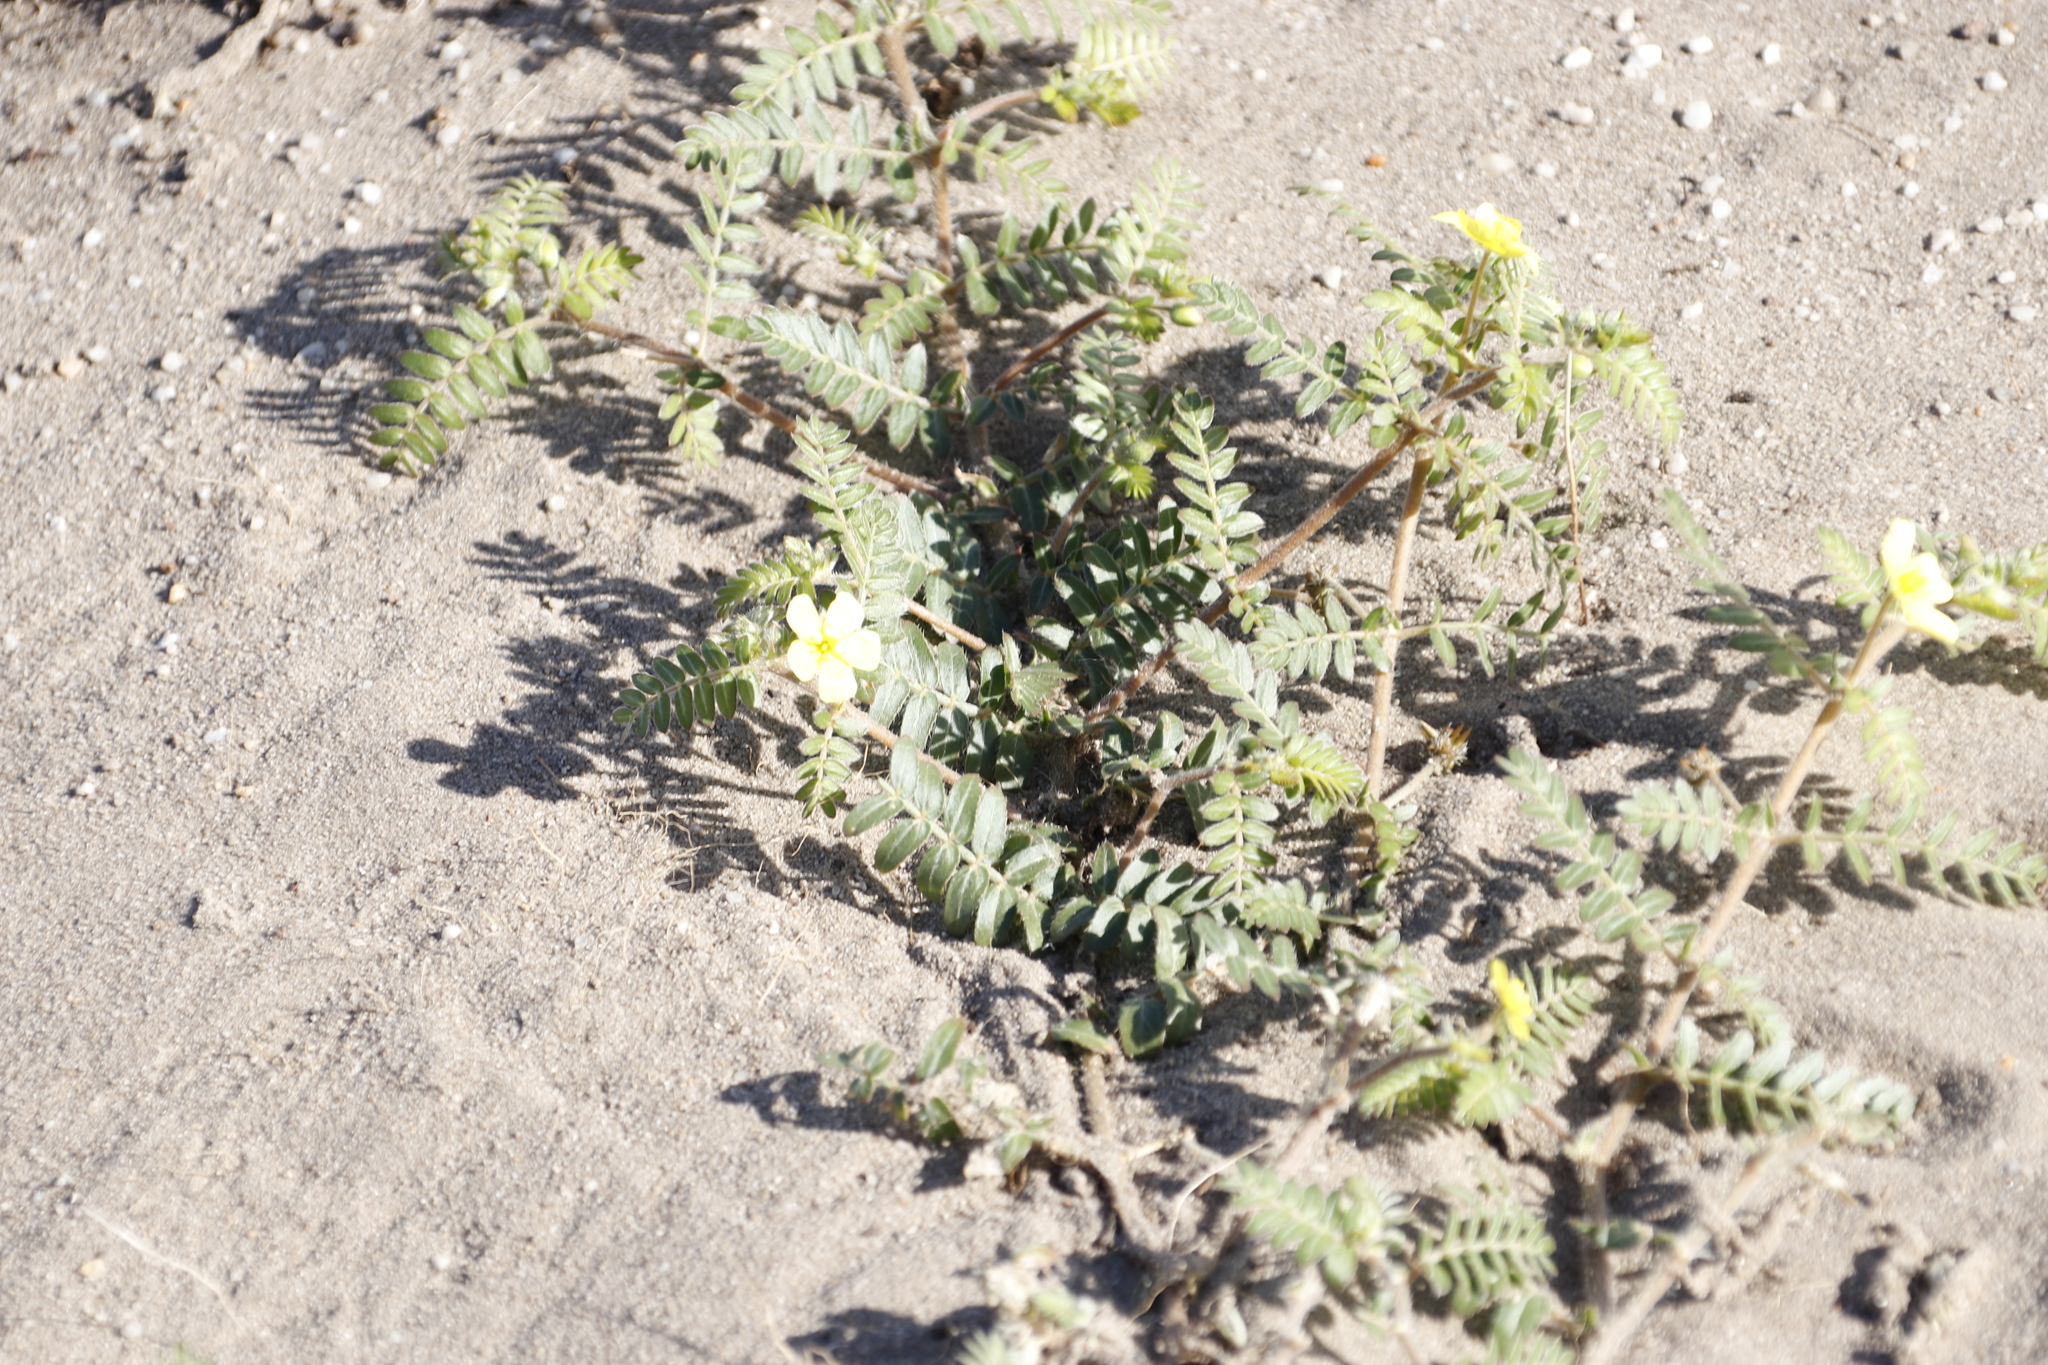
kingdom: Plantae
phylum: Tracheophyta
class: Magnoliopsida
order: Zygophyllales
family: Zygophyllaceae
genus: Tribulus
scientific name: Tribulus terrestris
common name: Puncturevine
